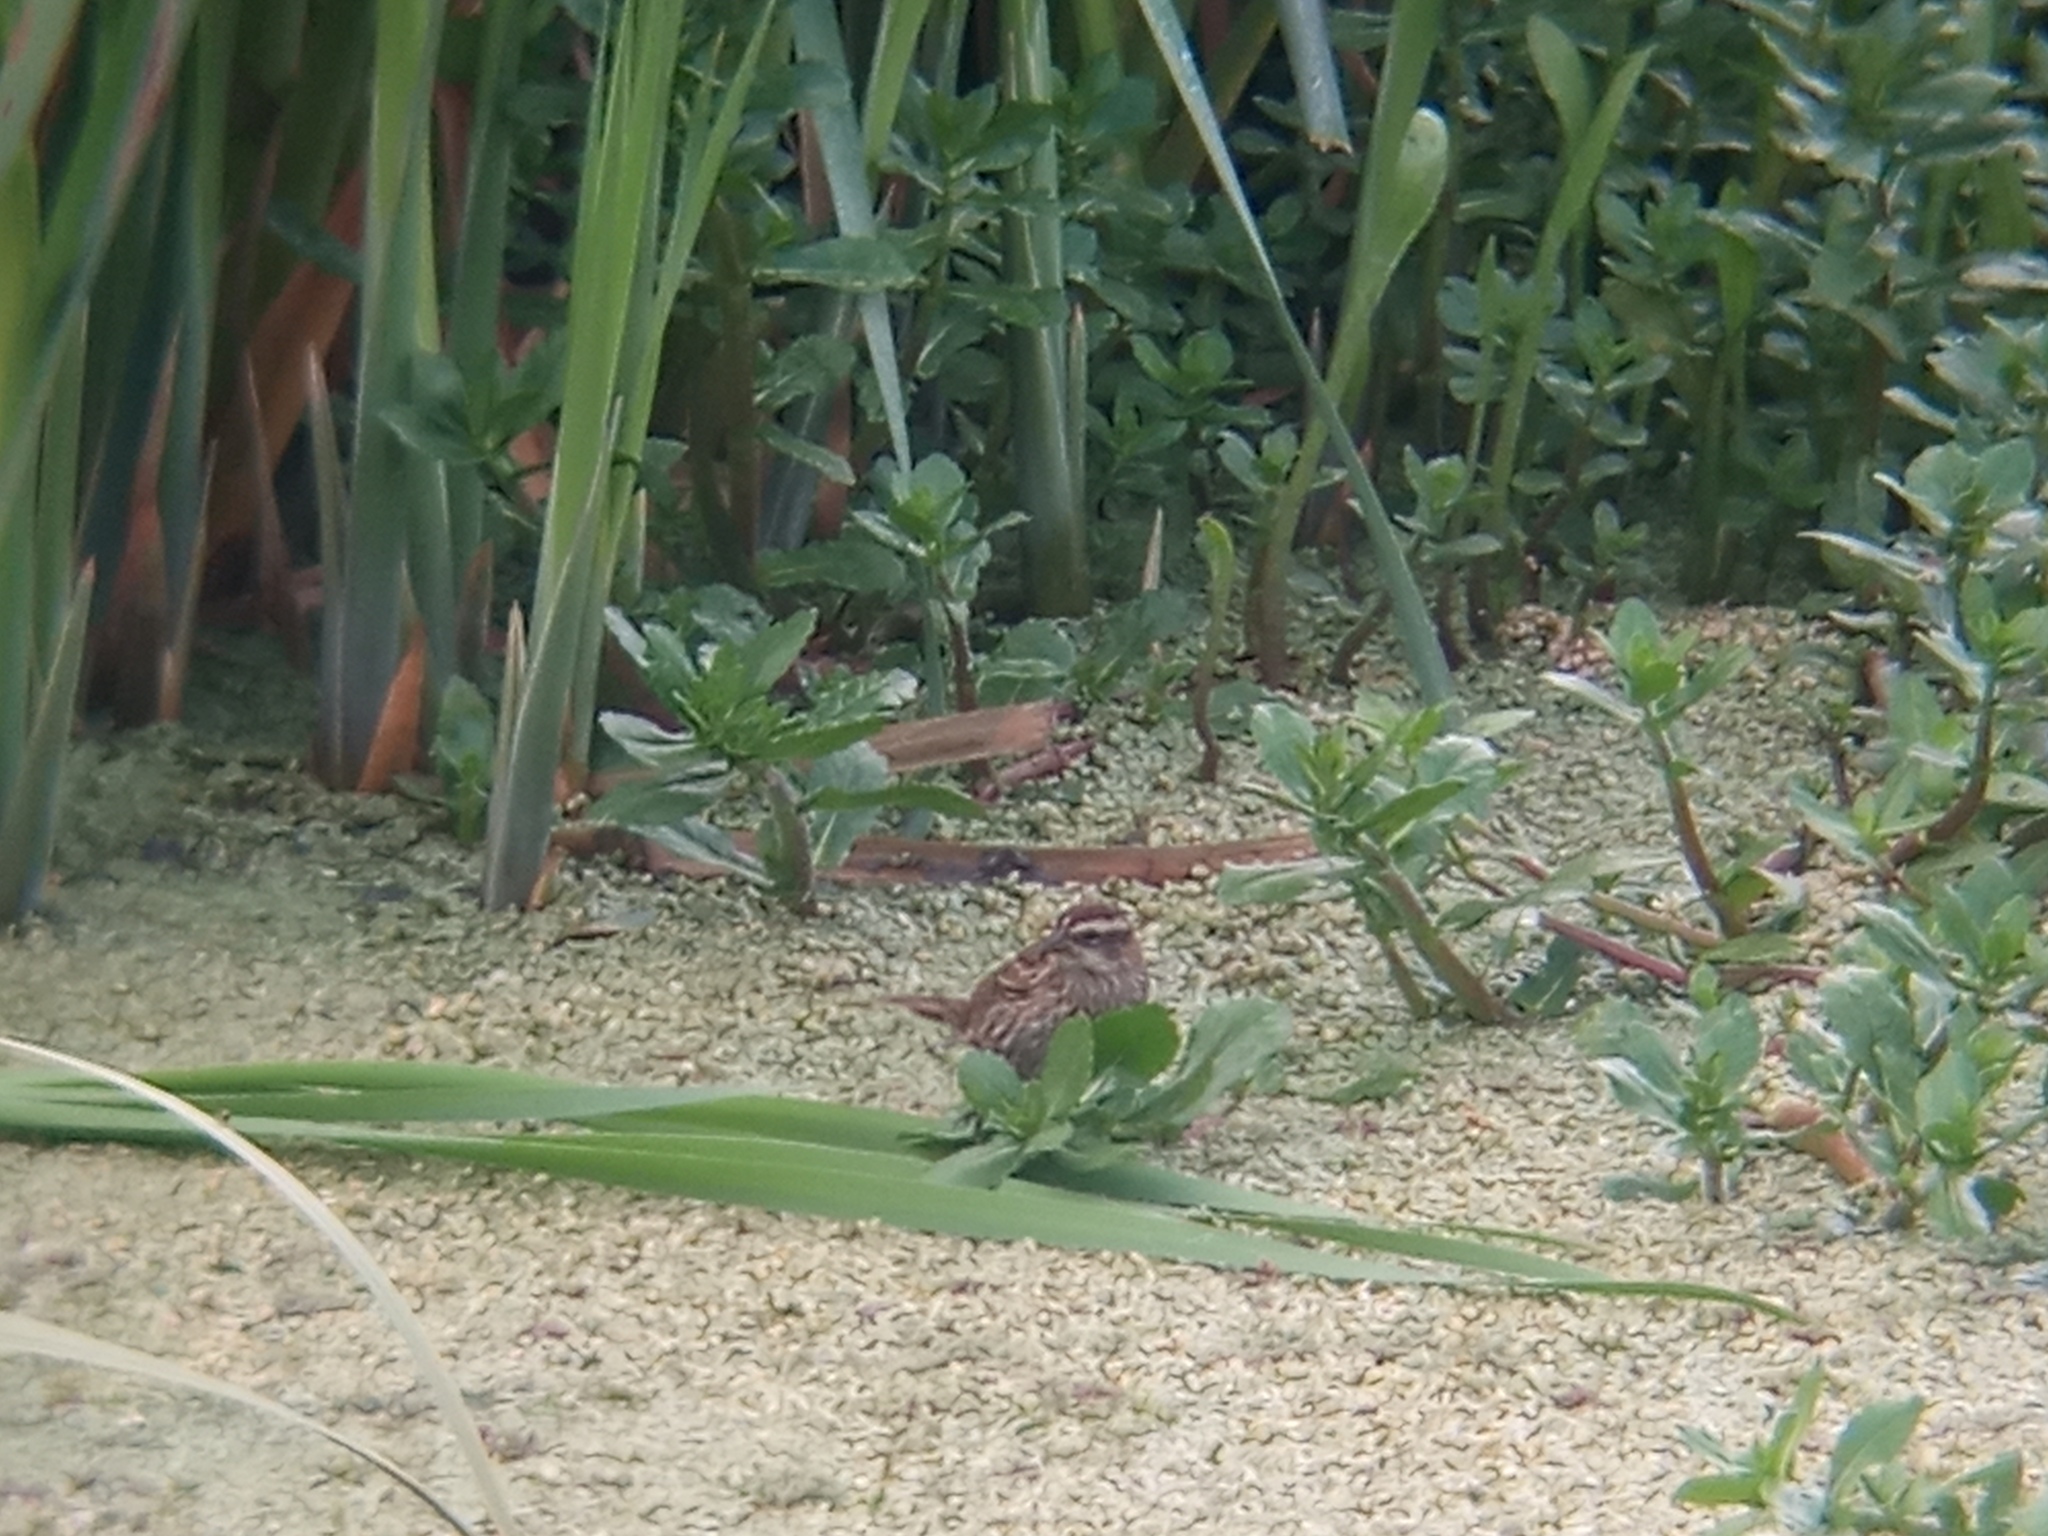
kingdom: Animalia
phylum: Chordata
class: Aves
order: Passeriformes
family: Icteridae
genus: Agelasticus
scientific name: Agelasticus thilius
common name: Yellow-winged blackbird
